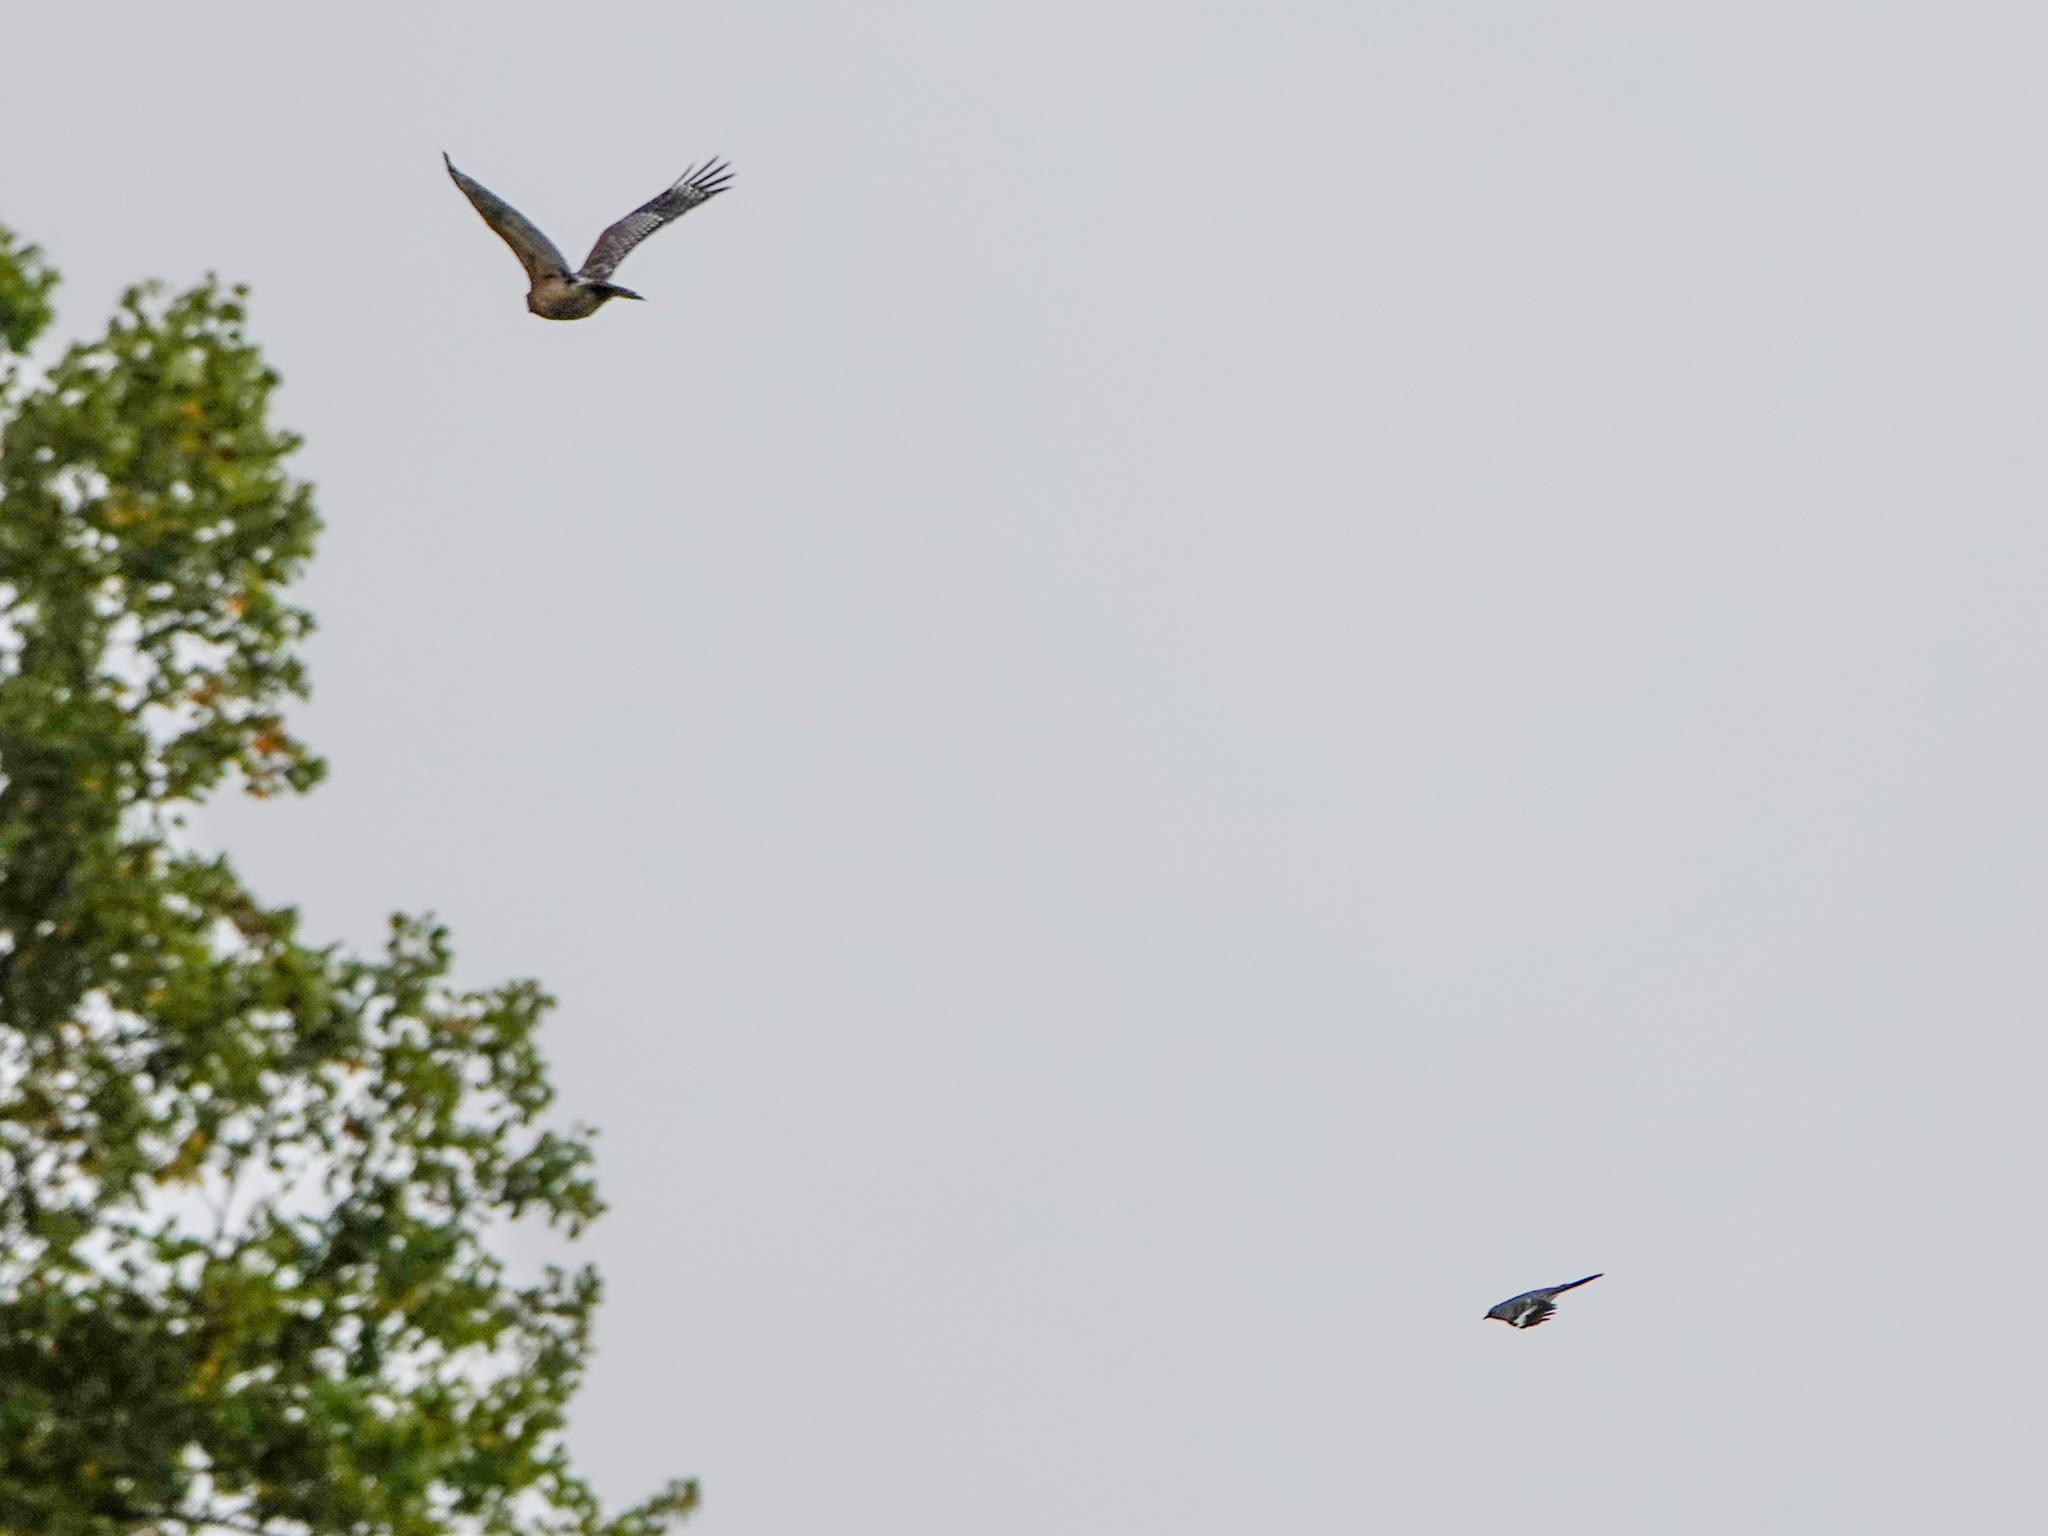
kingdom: Animalia
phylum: Chordata
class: Aves
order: Passeriformes
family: Mimidae
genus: Mimus
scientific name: Mimus polyglottos
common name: Northern mockingbird
